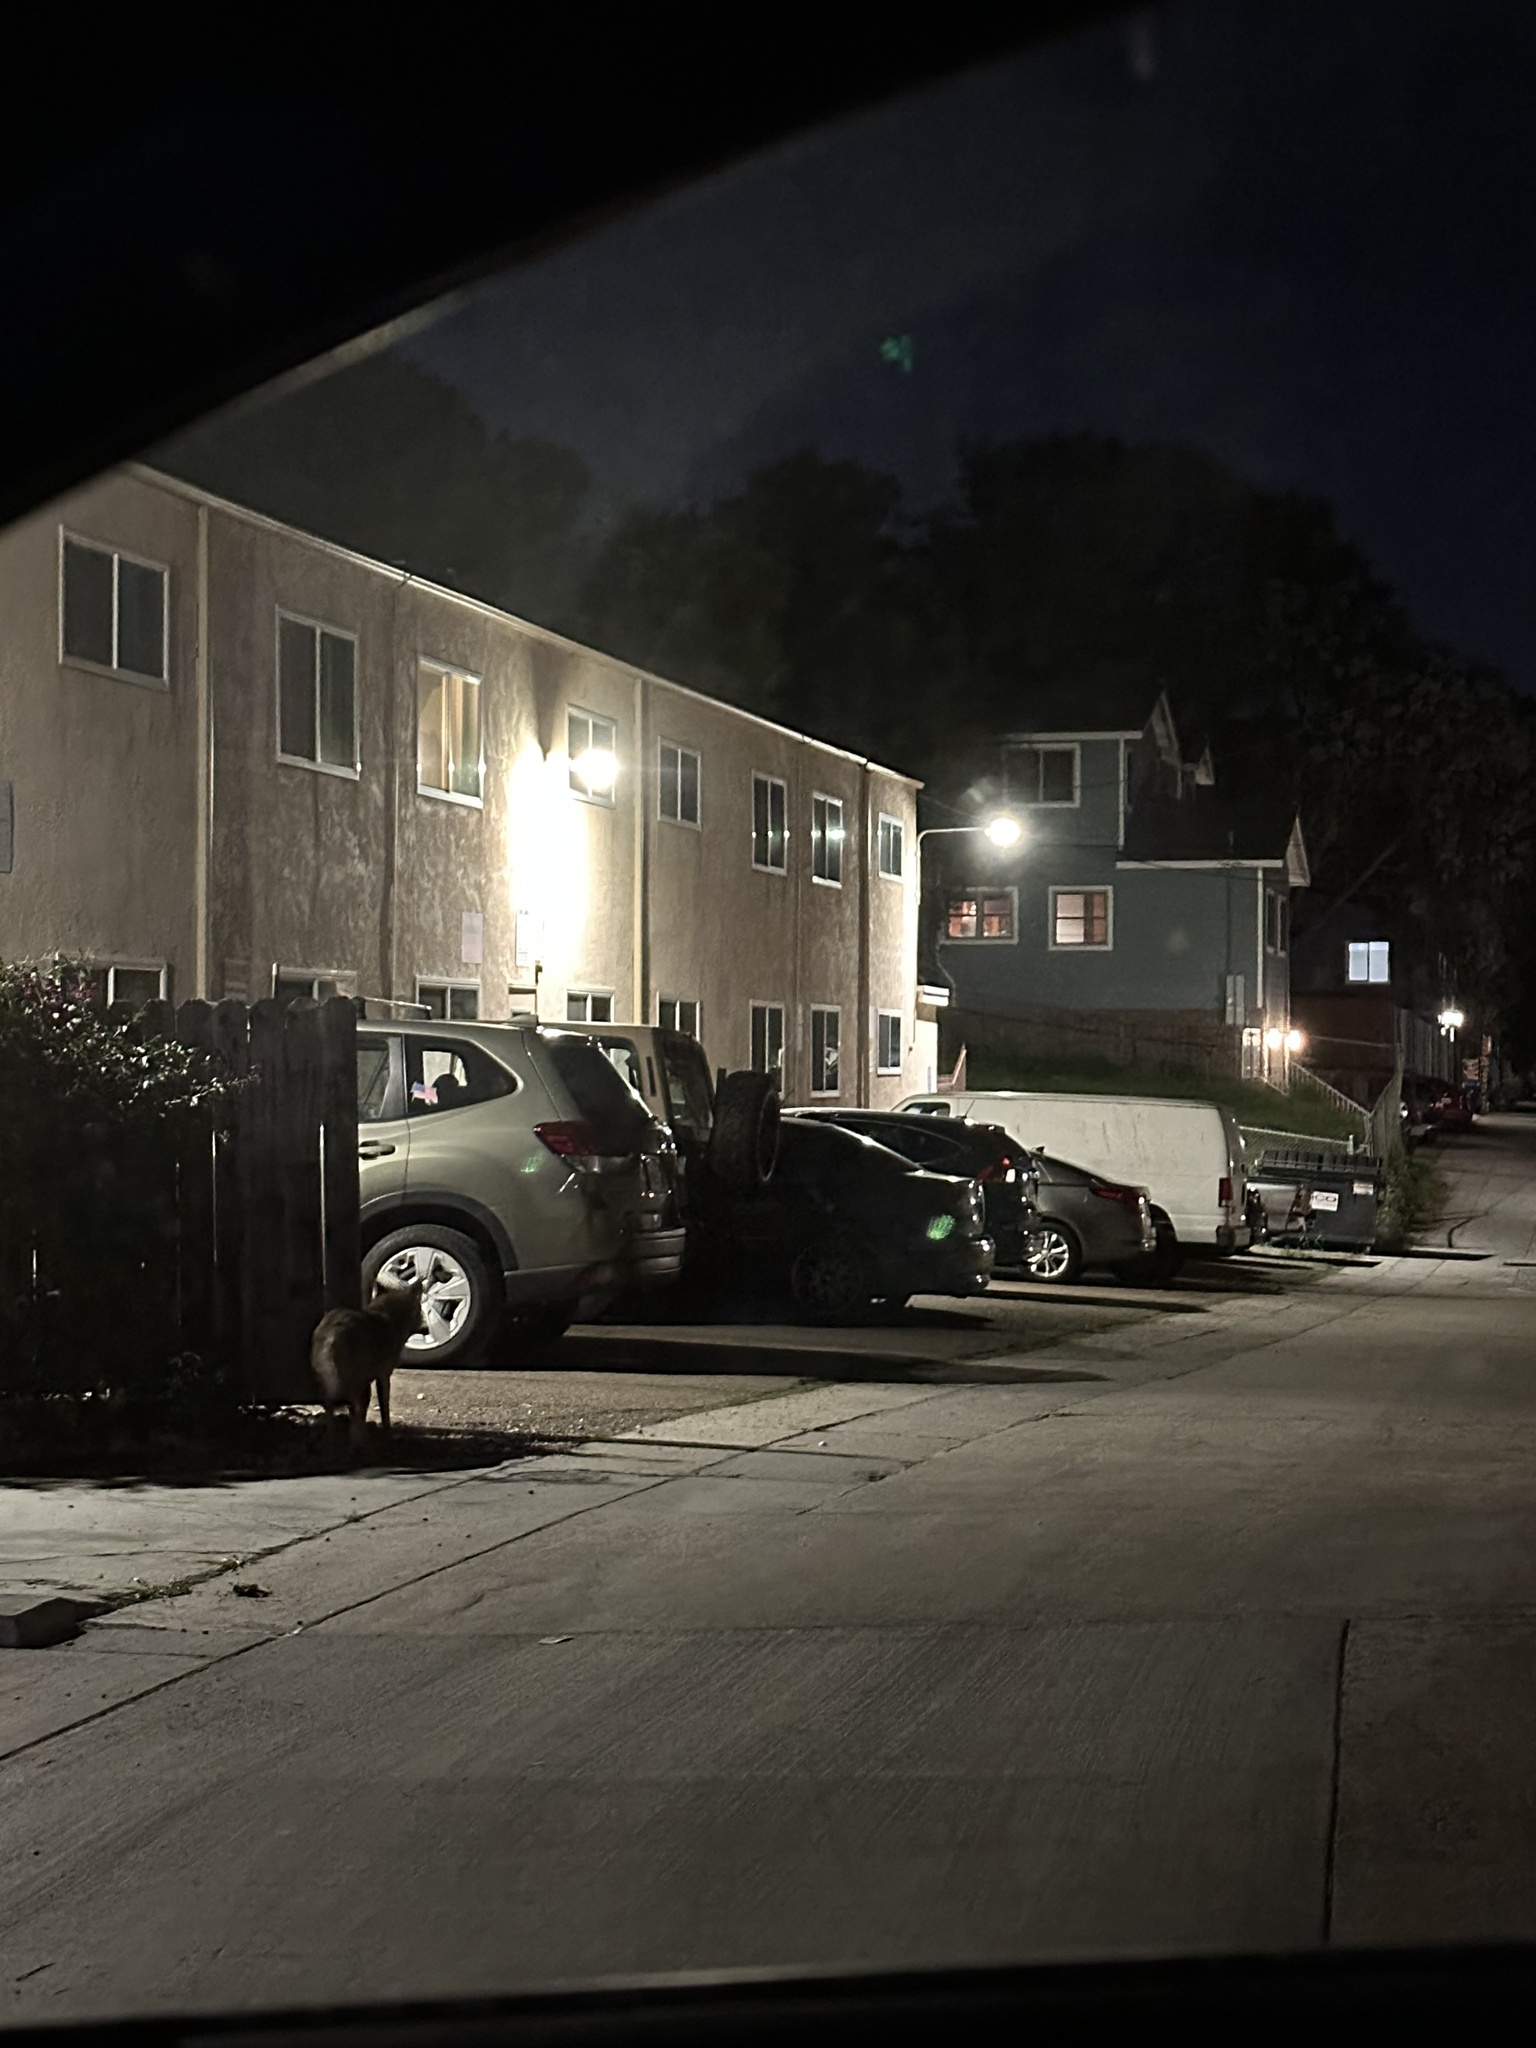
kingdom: Animalia
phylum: Chordata
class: Mammalia
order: Carnivora
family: Canidae
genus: Canis
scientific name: Canis latrans
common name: Coyote
